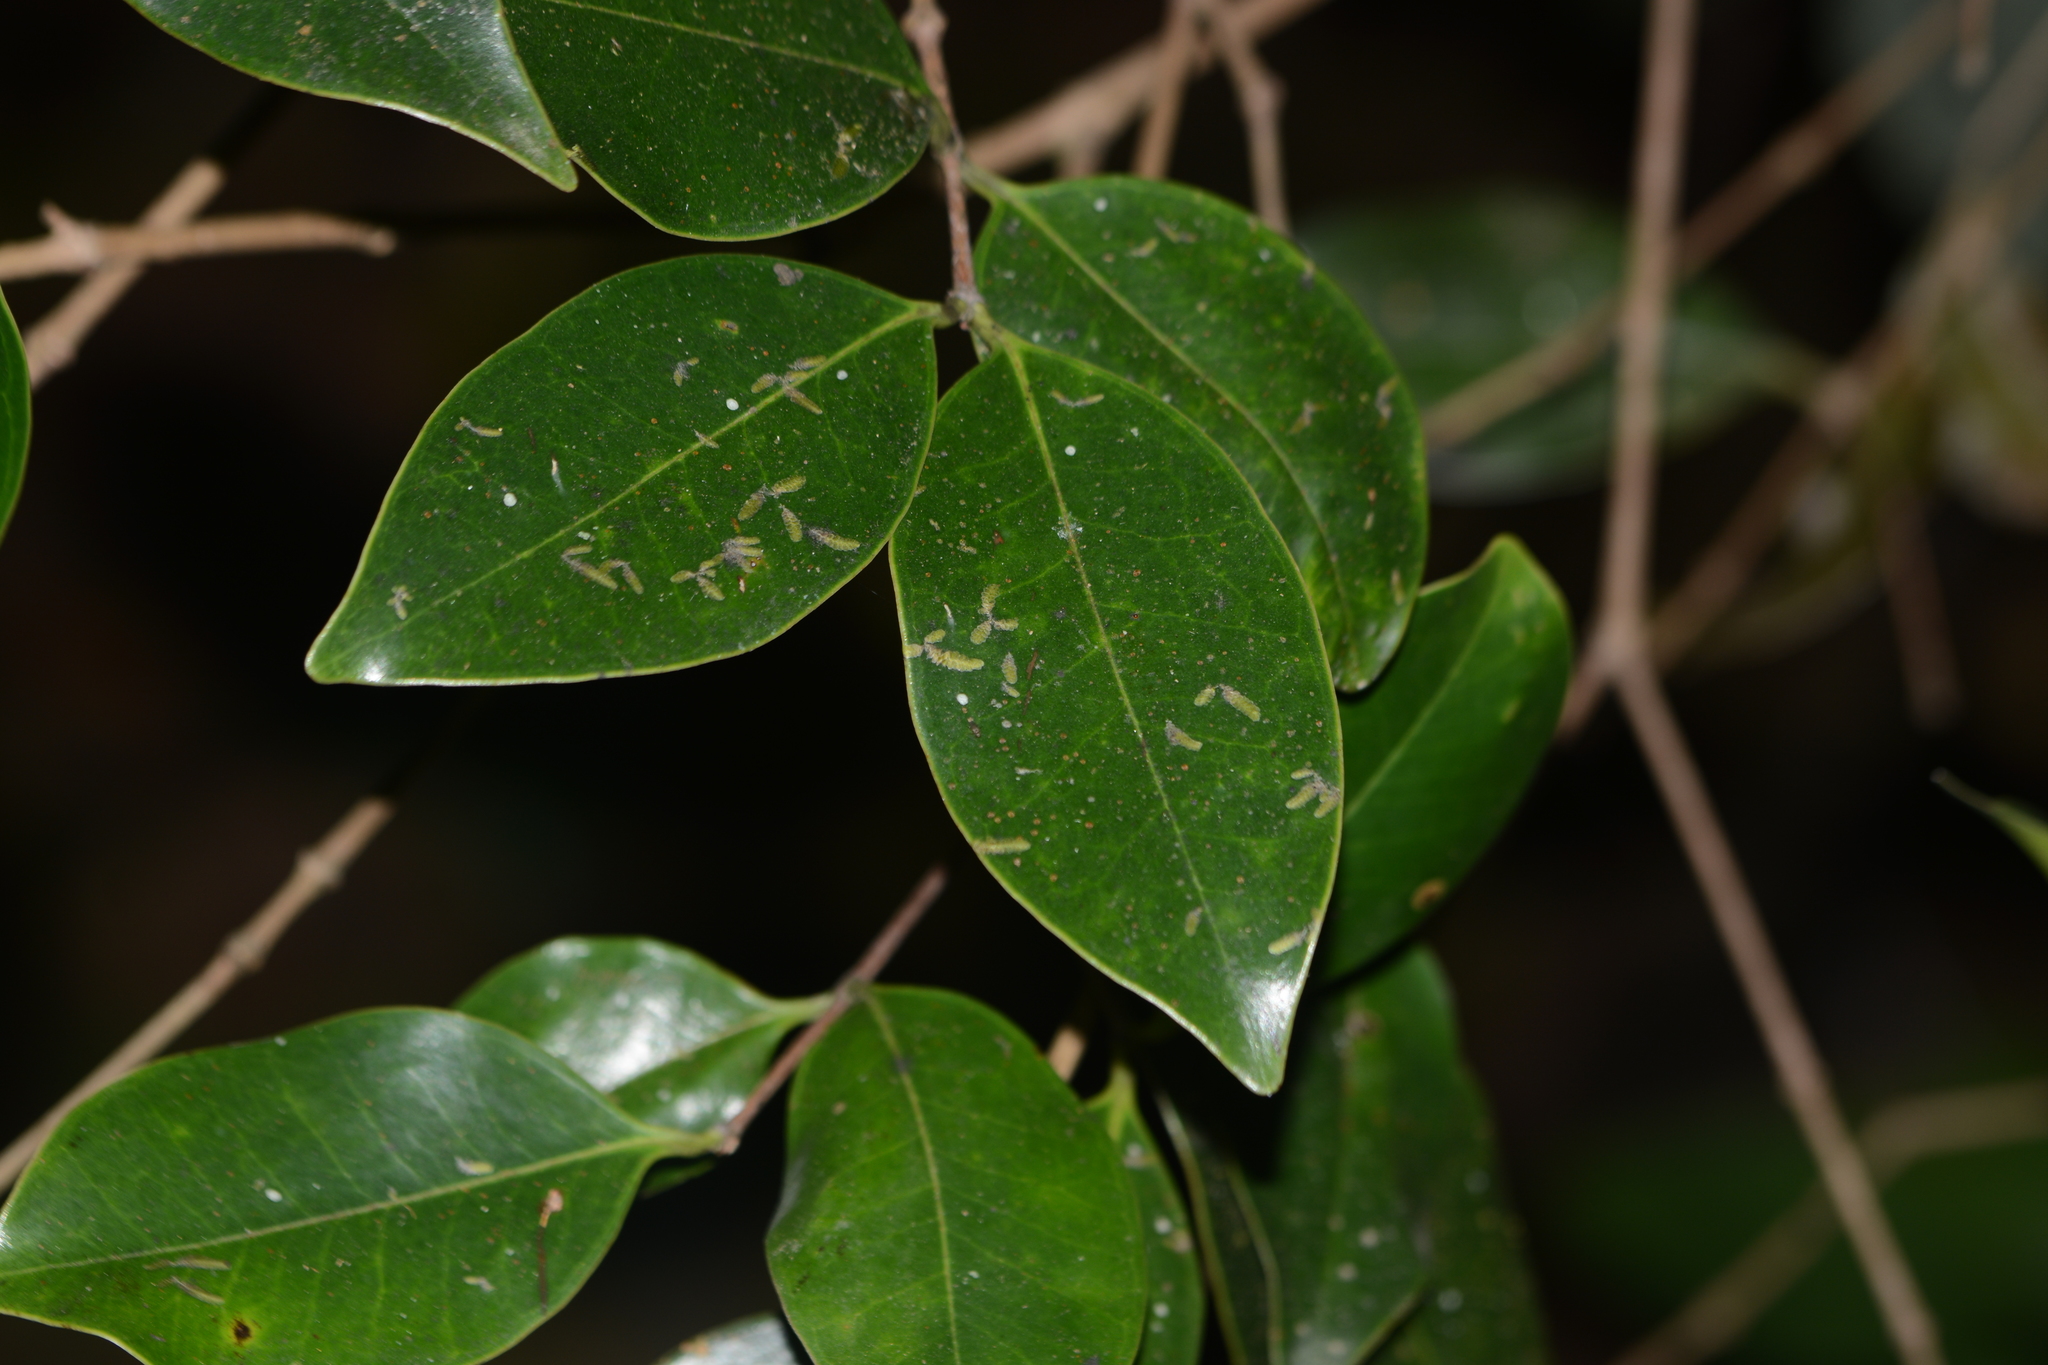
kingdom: Plantae
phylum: Tracheophyta
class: Magnoliopsida
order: Myrtales
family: Melastomataceae
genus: Memecylon
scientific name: Memecylon umbellatum
